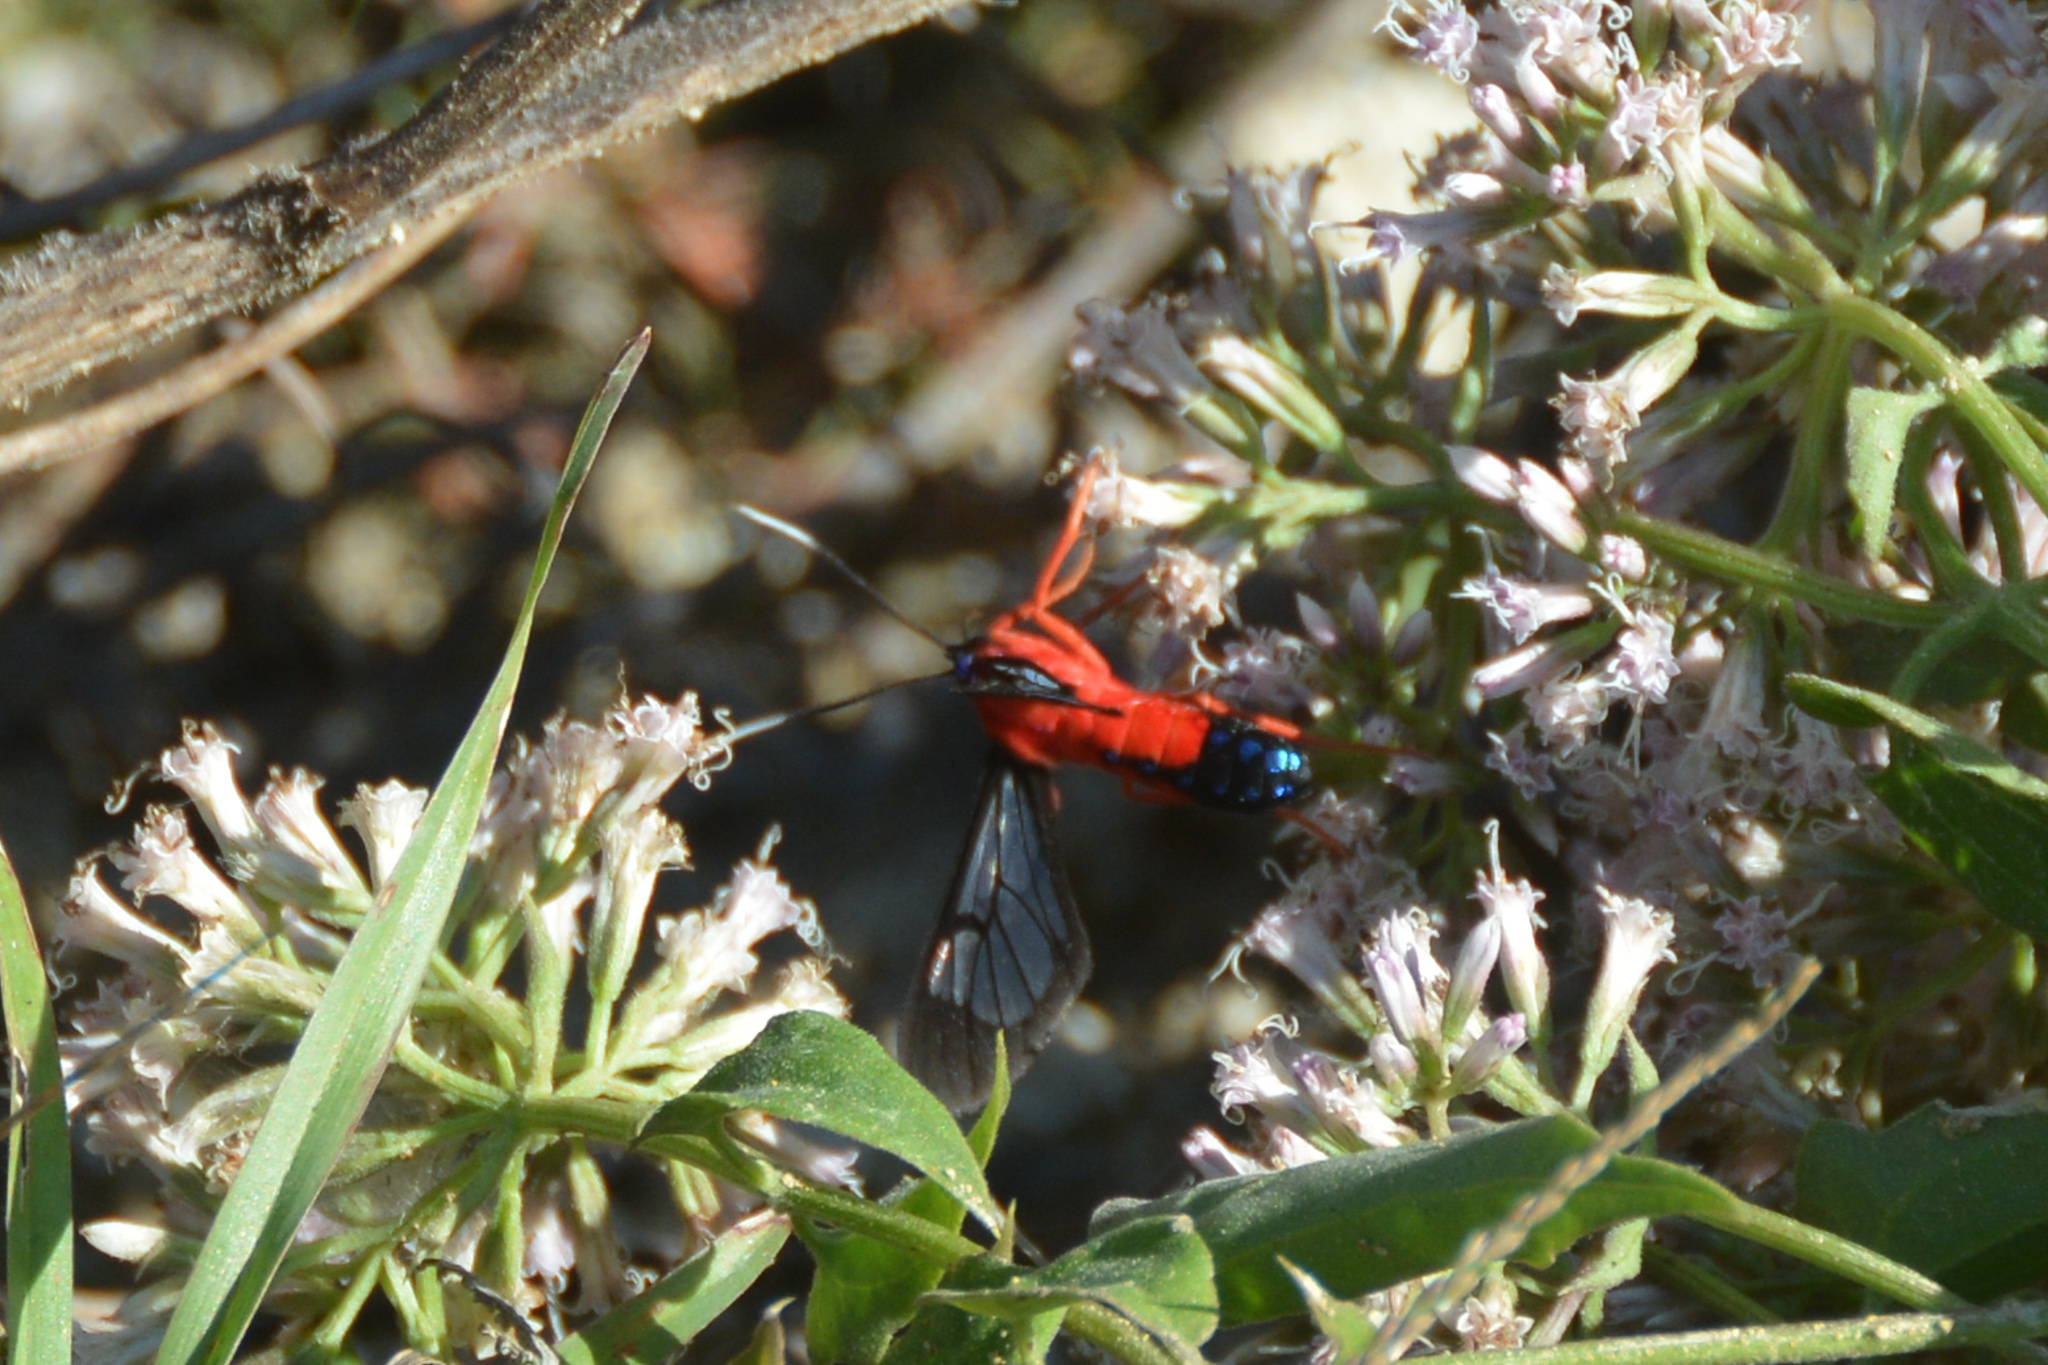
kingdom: Animalia
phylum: Arthropoda
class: Insecta
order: Lepidoptera
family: Erebidae
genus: Cosmosoma
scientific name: Cosmosoma myrodora
